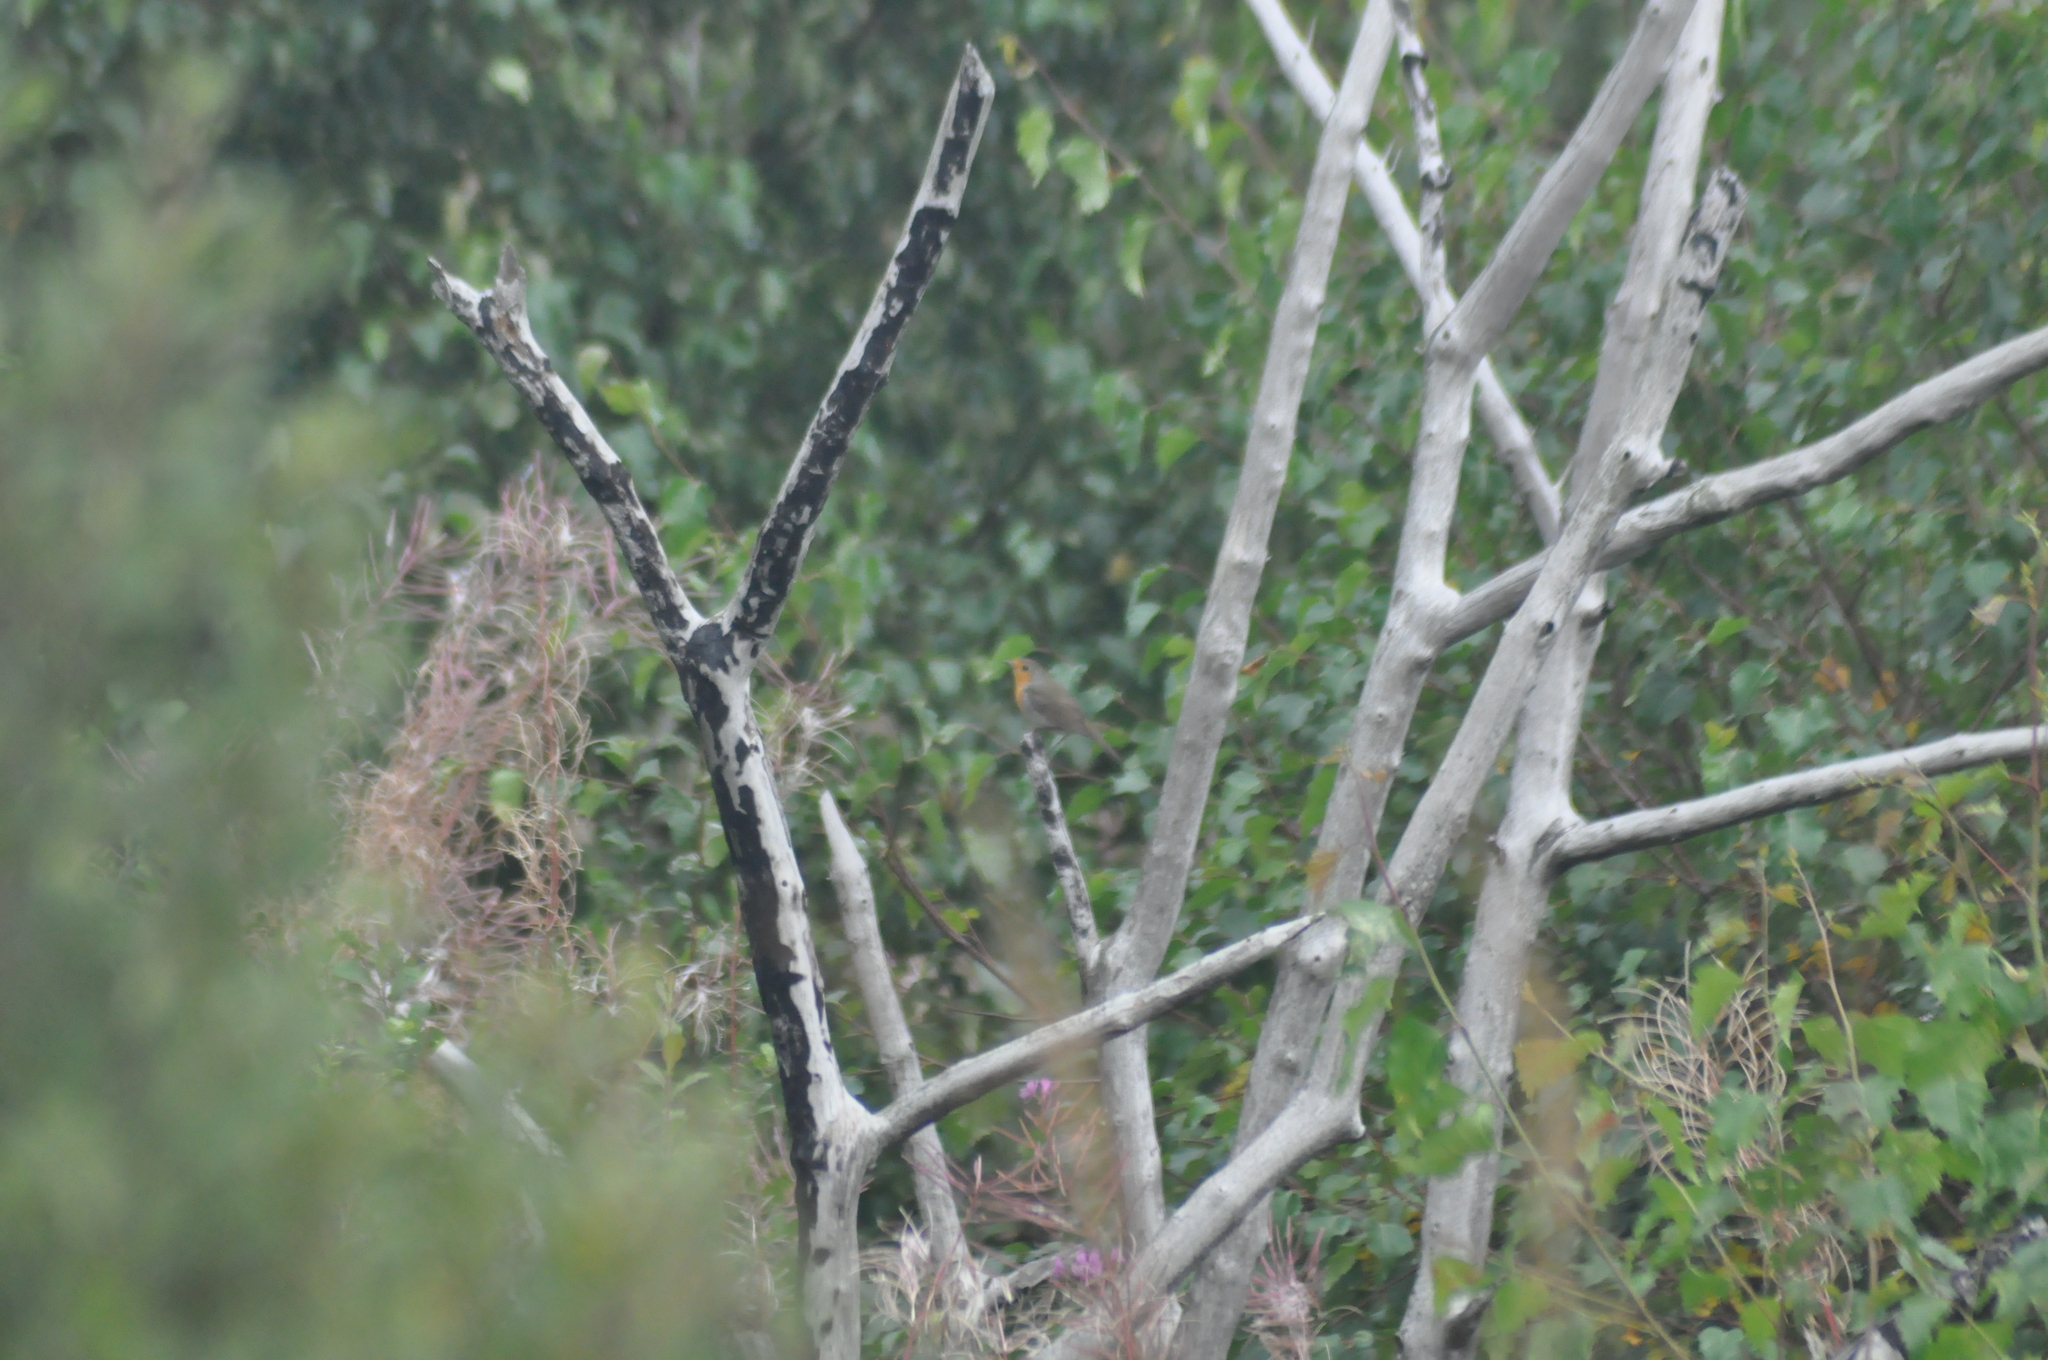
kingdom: Animalia
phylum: Chordata
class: Aves
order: Passeriformes
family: Muscicapidae
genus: Erithacus
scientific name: Erithacus rubecula
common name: European robin
